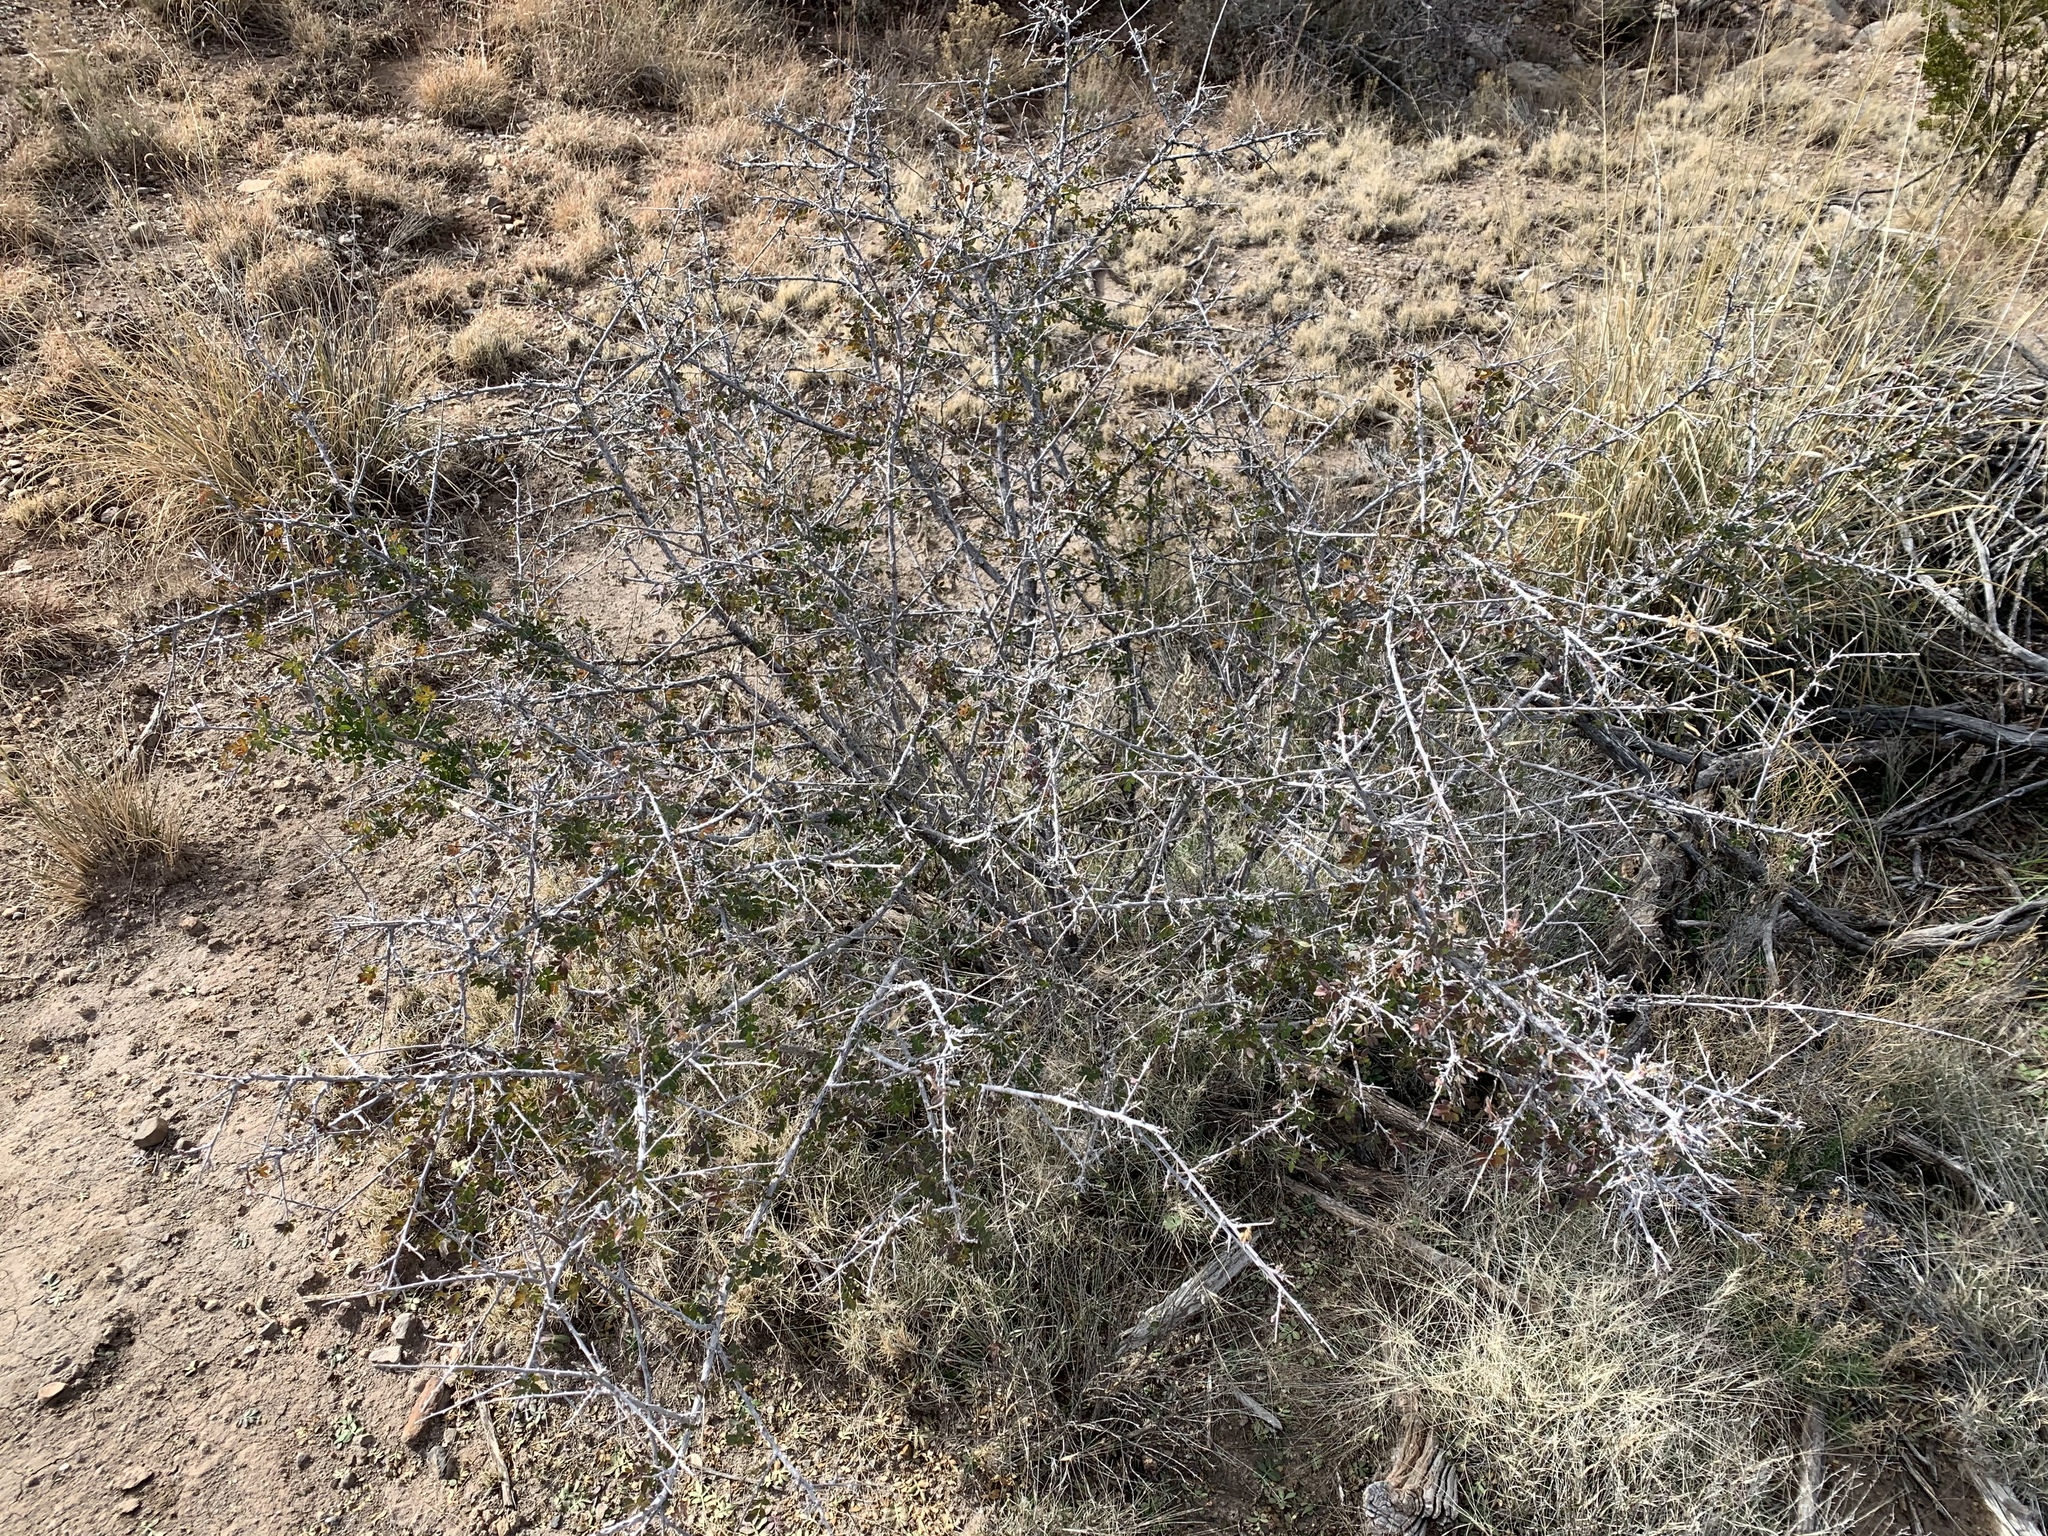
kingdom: Plantae
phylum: Tracheophyta
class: Magnoliopsida
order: Sapindales
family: Anacardiaceae
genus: Rhus
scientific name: Rhus microphylla
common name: Desert sumac
